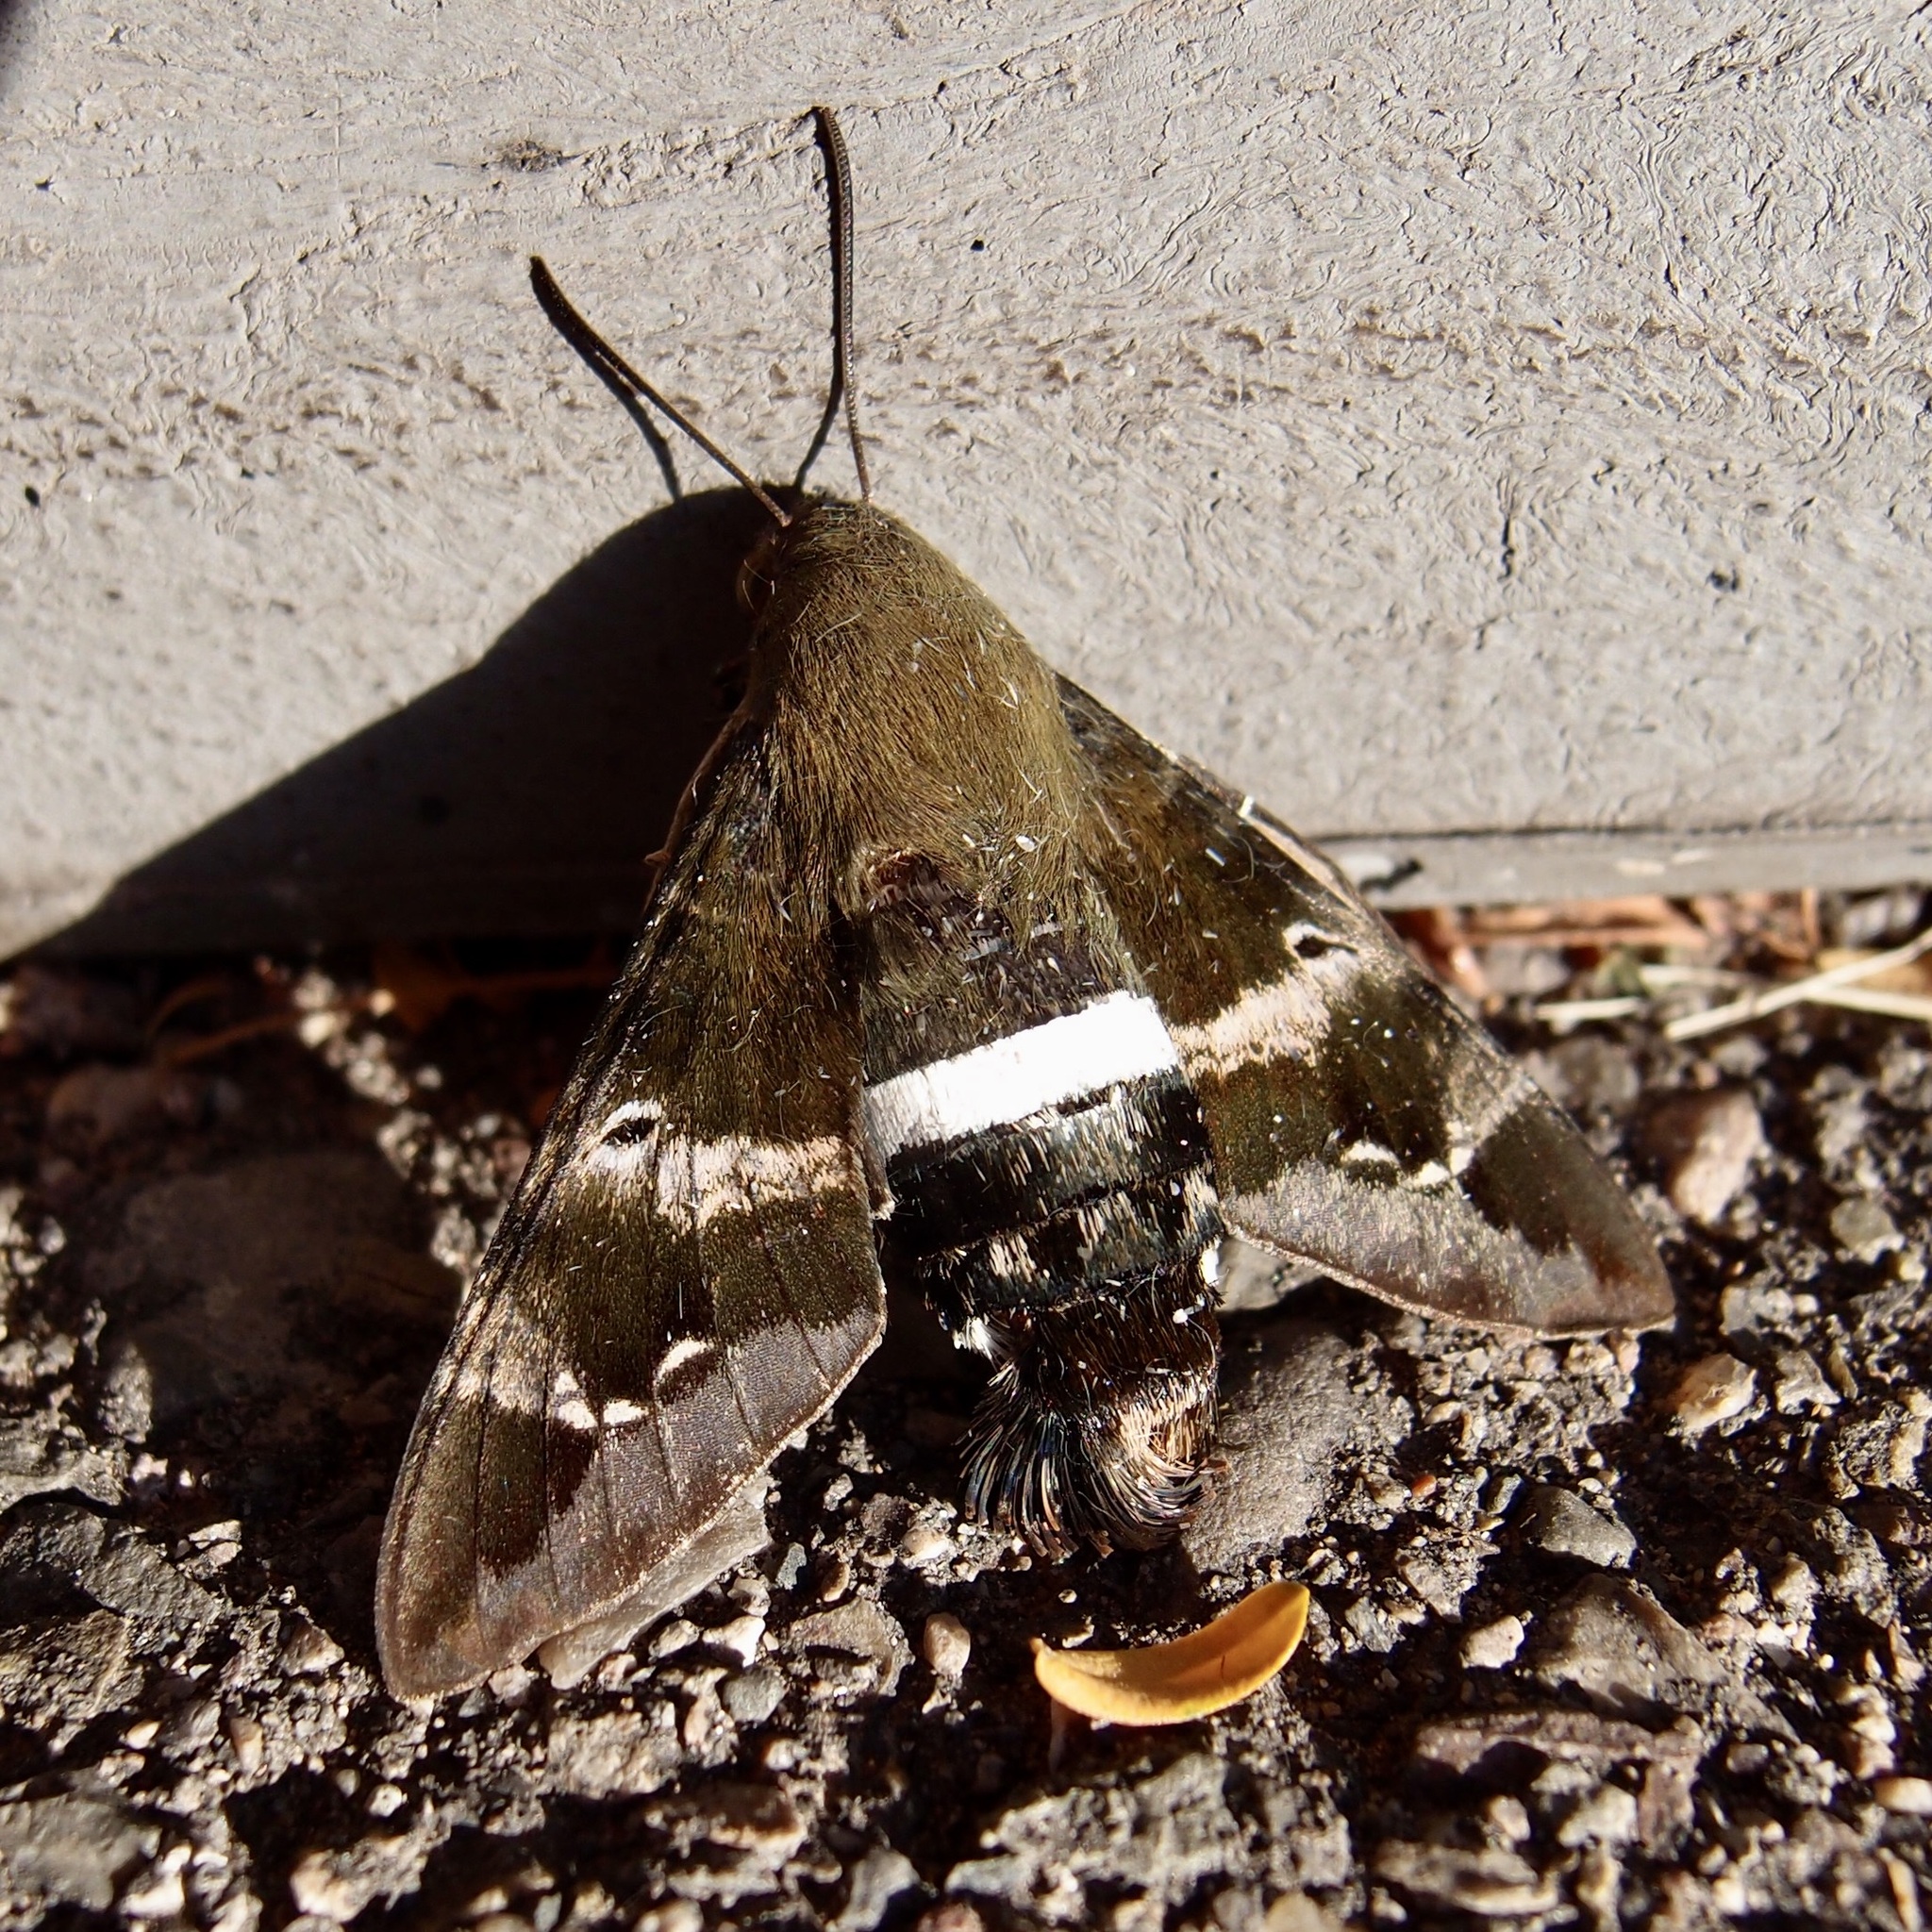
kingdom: Animalia
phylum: Arthropoda
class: Insecta
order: Lepidoptera
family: Sphingidae
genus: Aellopos
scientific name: Aellopos clavipes
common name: Clavipes sphinx
